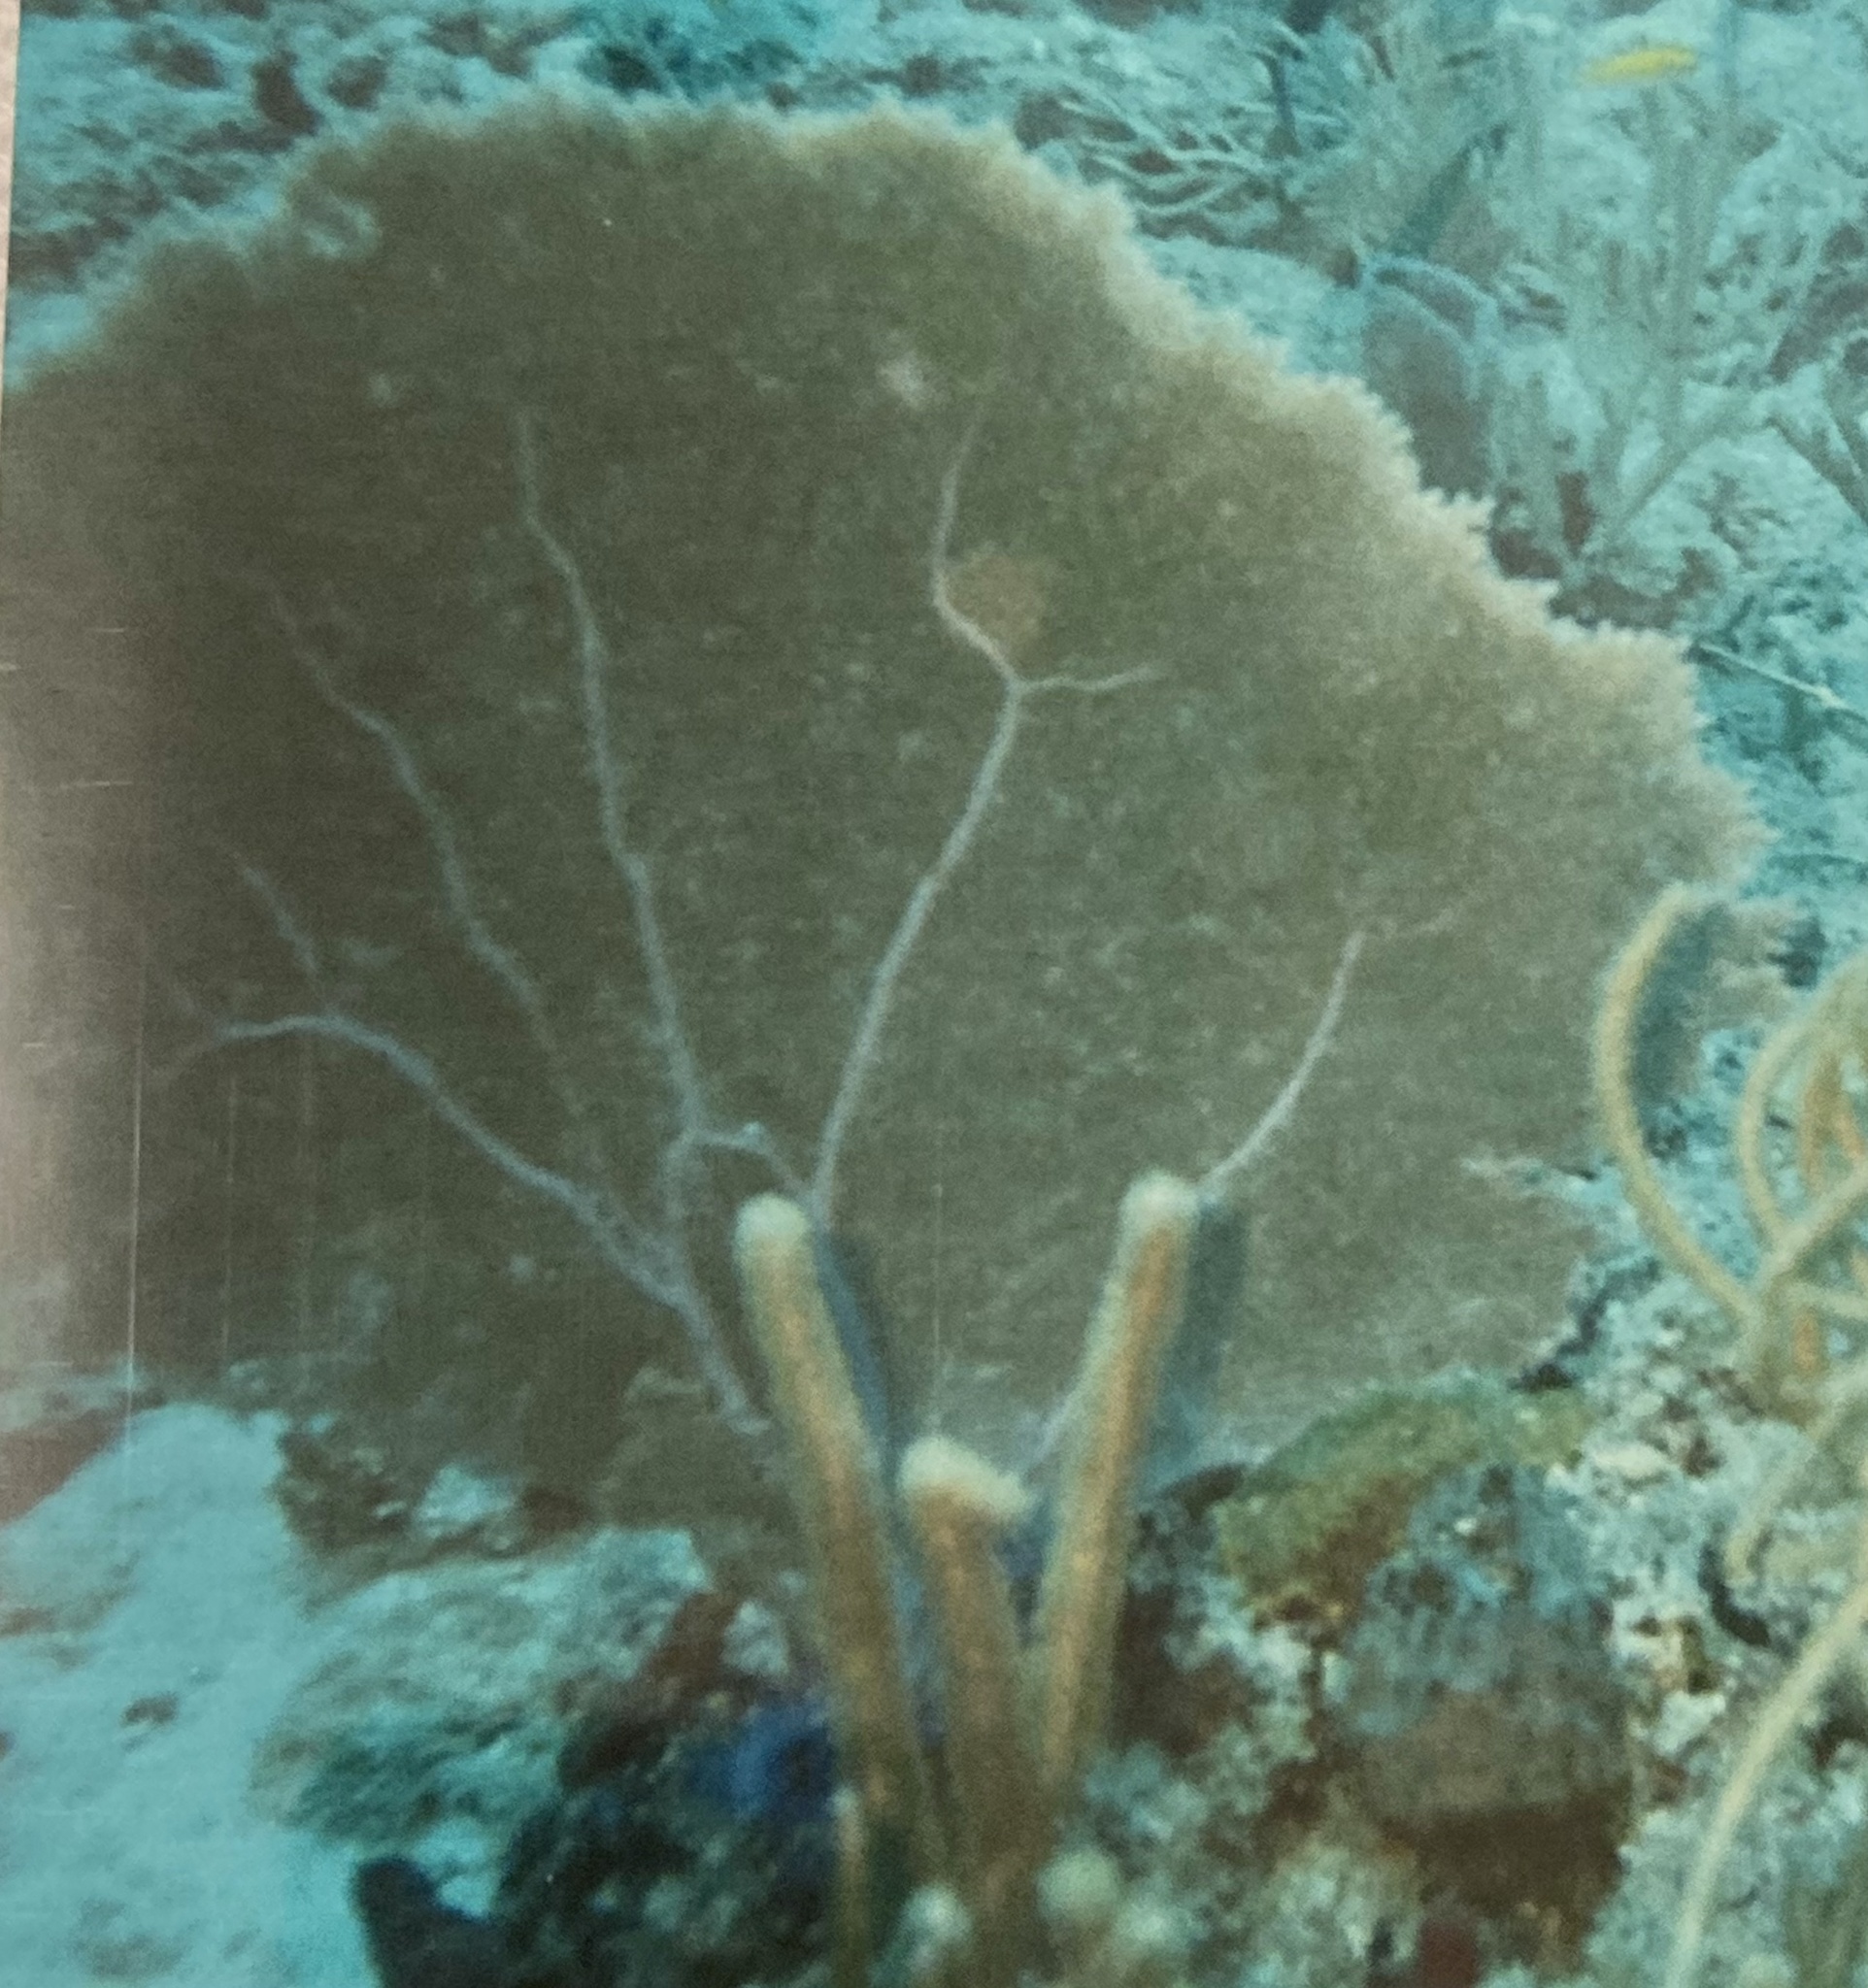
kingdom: Animalia
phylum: Cnidaria
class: Anthozoa
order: Malacalcyonacea
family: Gorgoniidae
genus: Gorgonia
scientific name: Gorgonia ventalina
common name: Common sea fan
